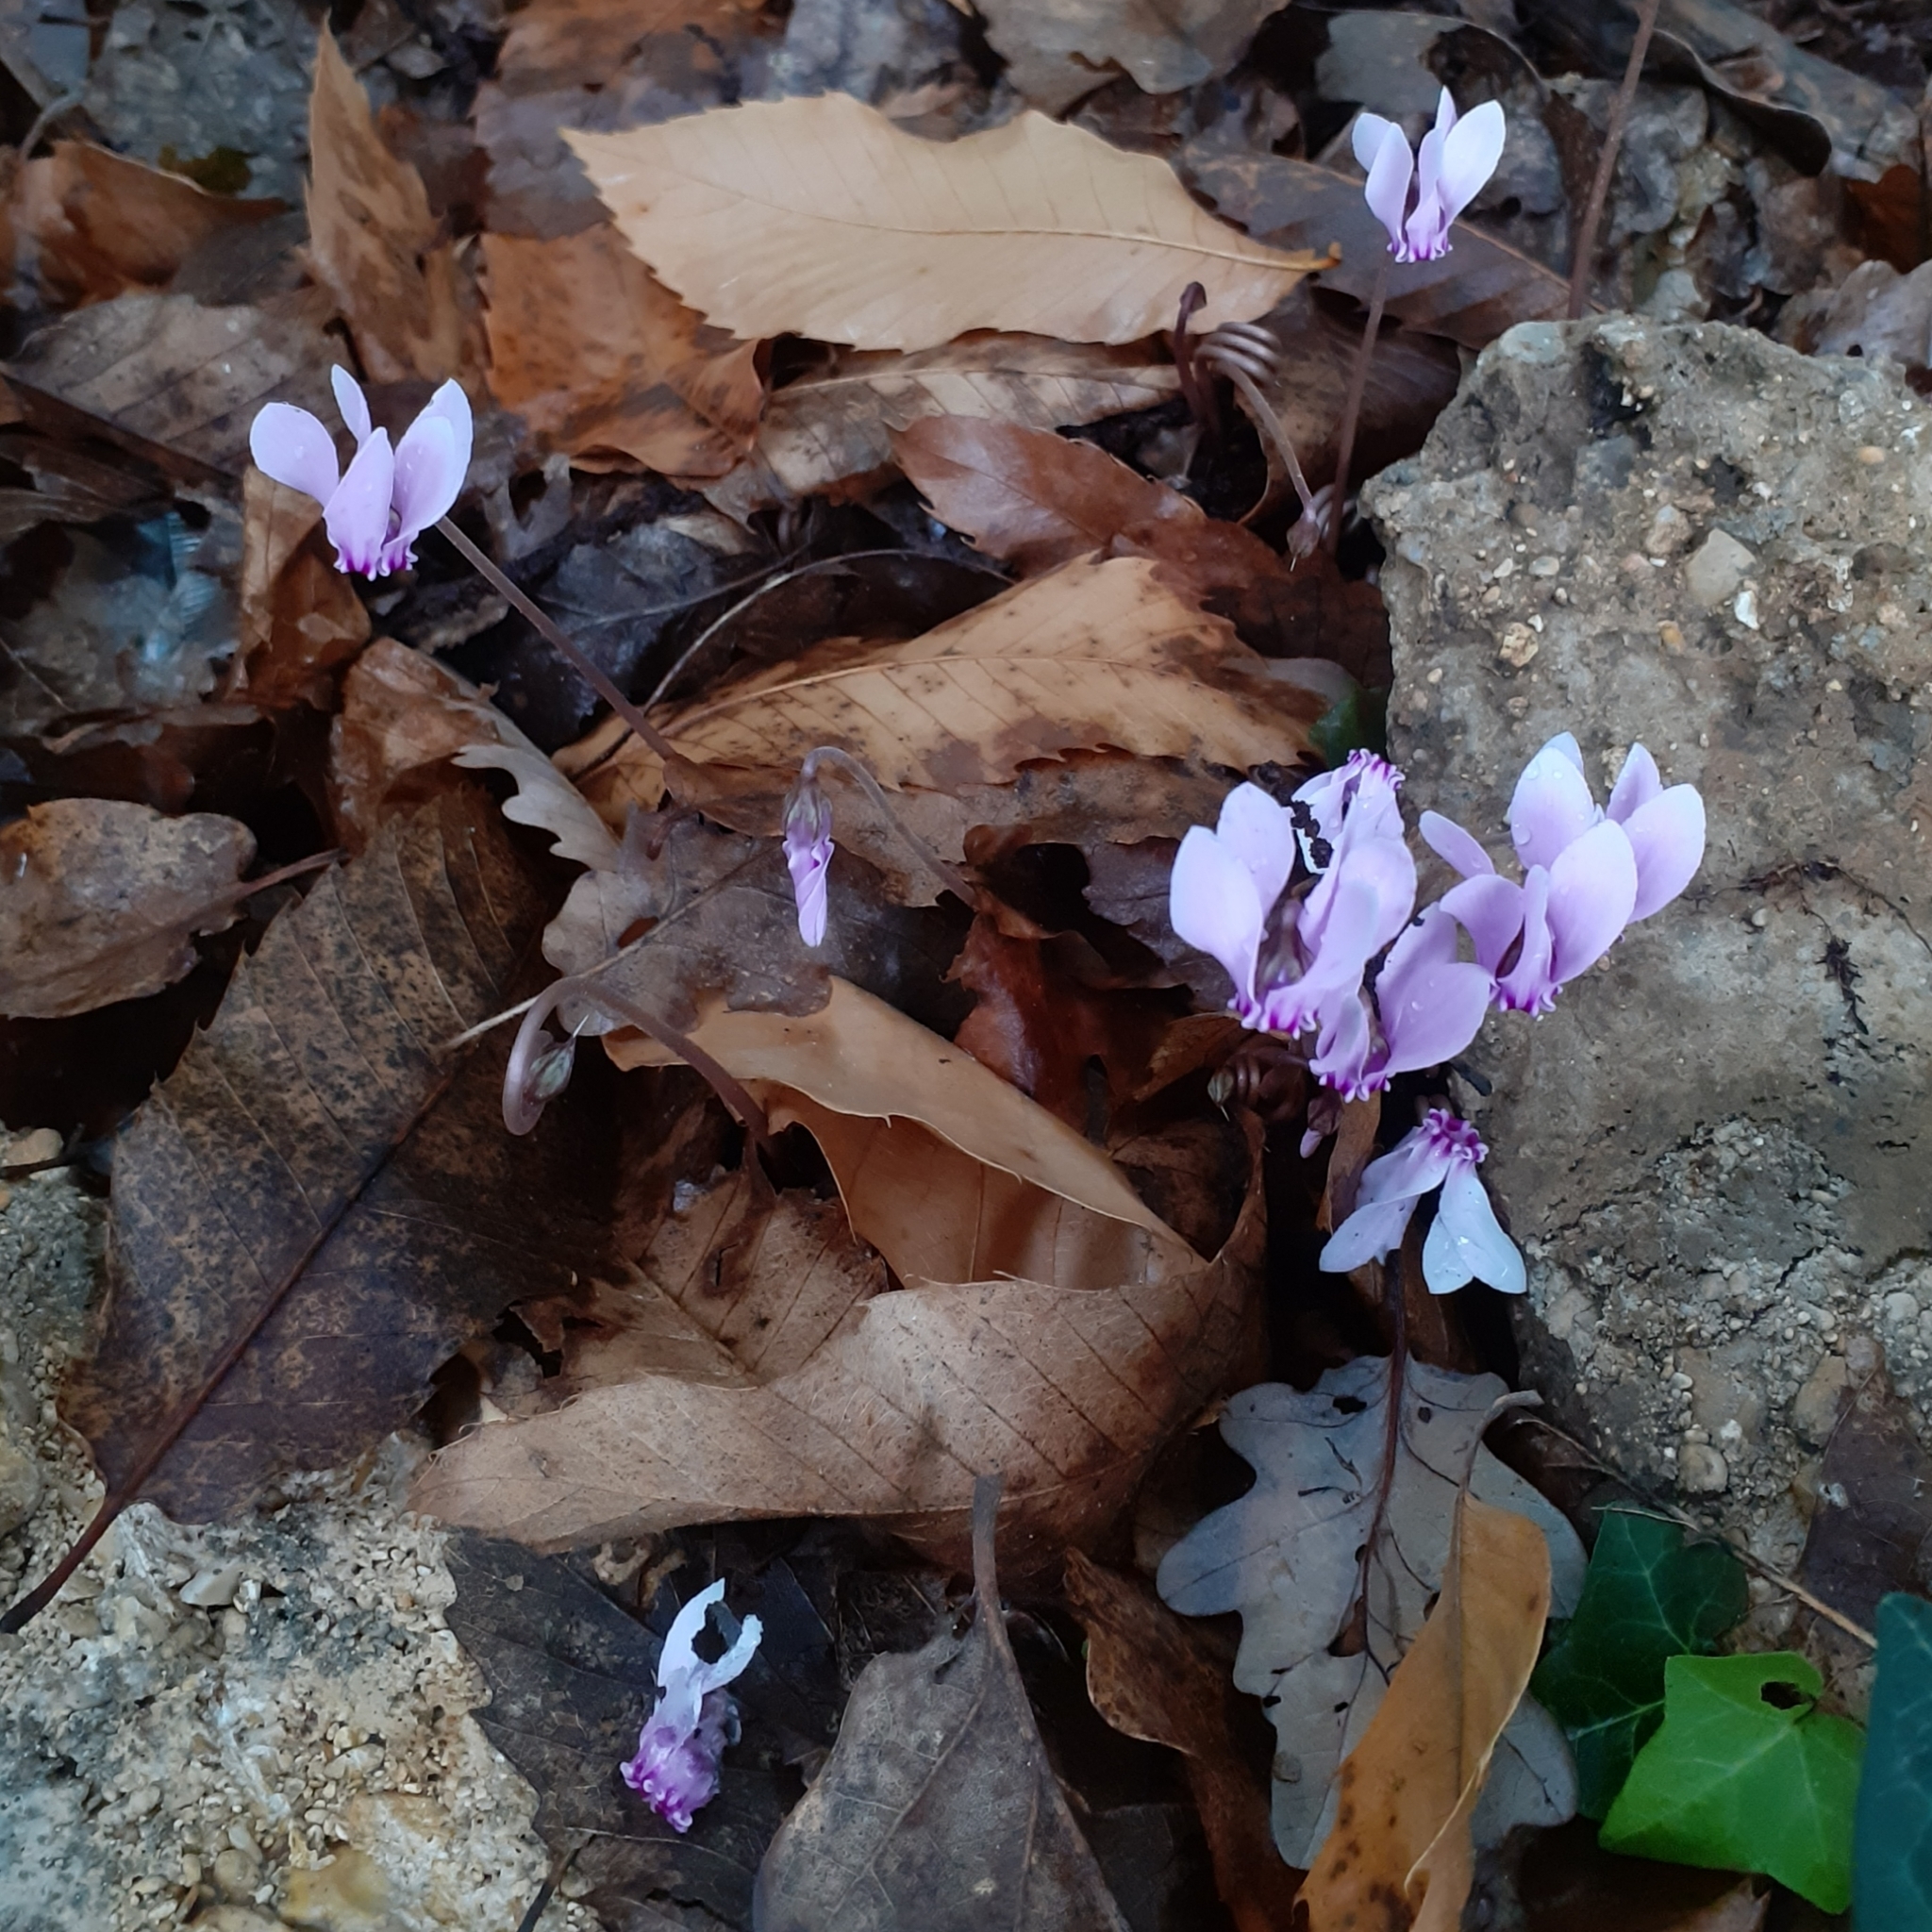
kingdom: Plantae
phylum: Tracheophyta
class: Magnoliopsida
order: Ericales
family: Primulaceae
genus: Cyclamen
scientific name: Cyclamen hederifolium
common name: Sowbread
